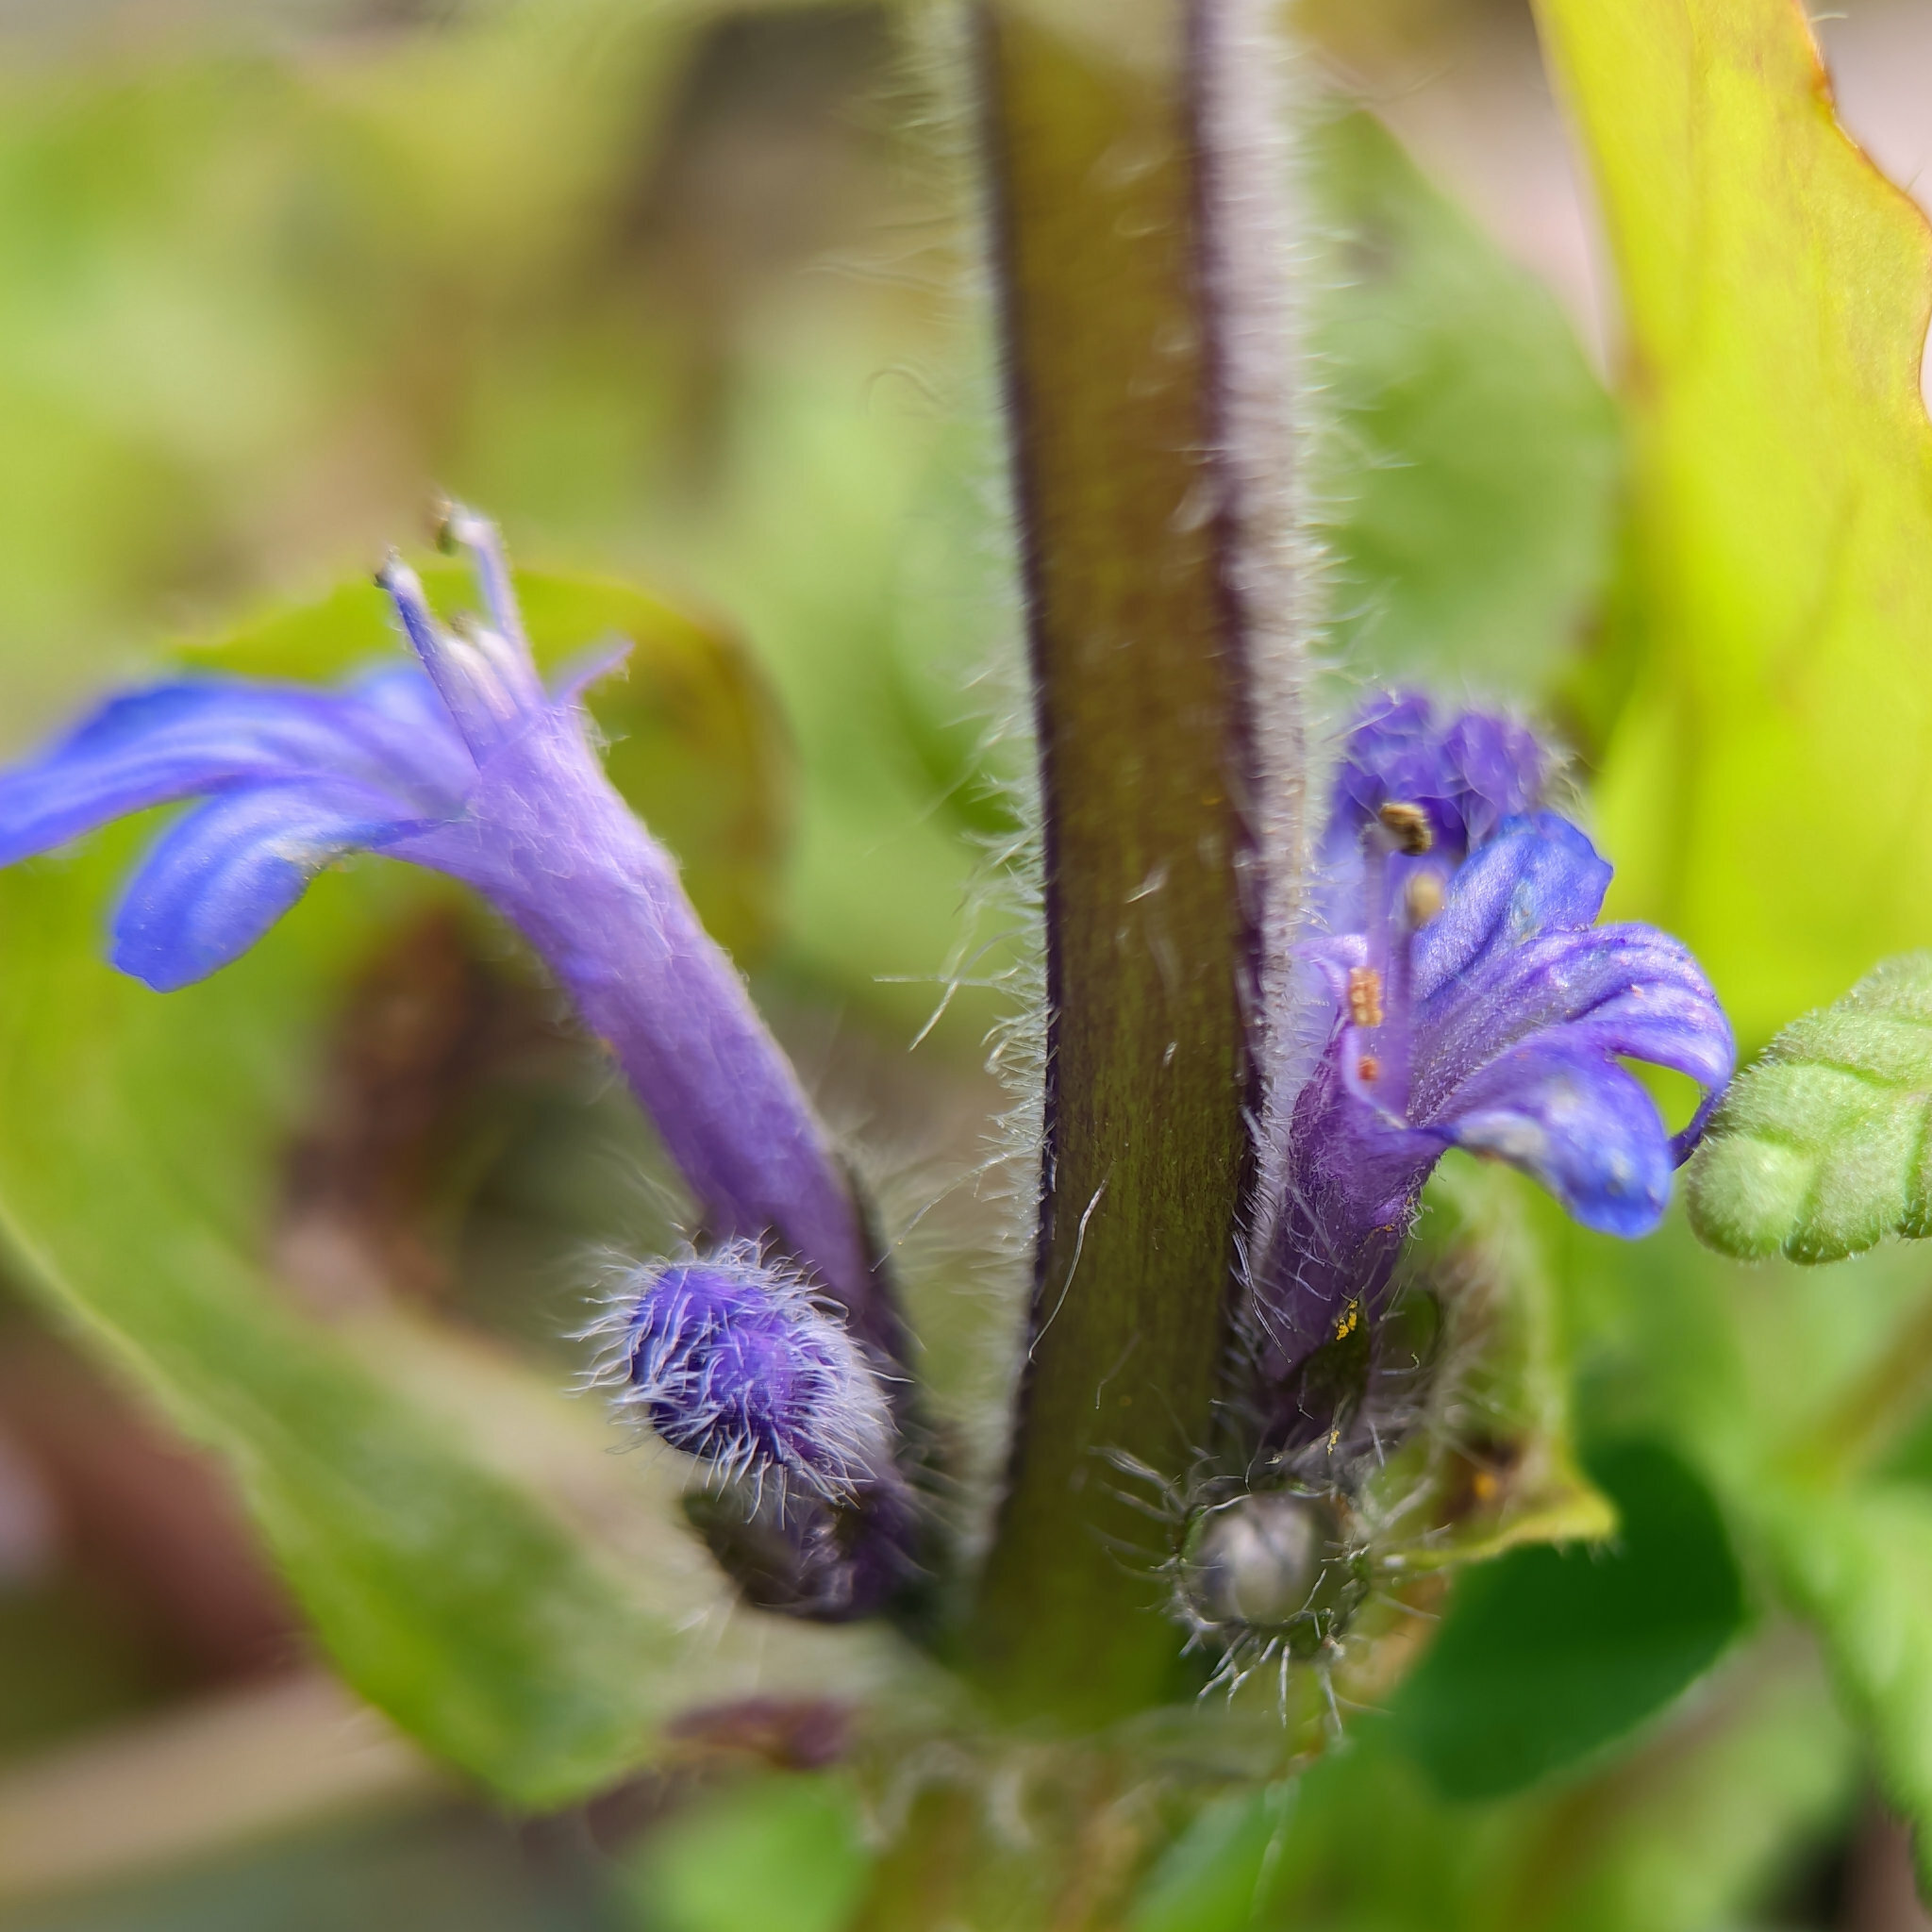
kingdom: Plantae
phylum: Tracheophyta
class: Magnoliopsida
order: Lamiales
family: Lamiaceae
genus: Ajuga
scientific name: Ajuga reptans
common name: Bugle
